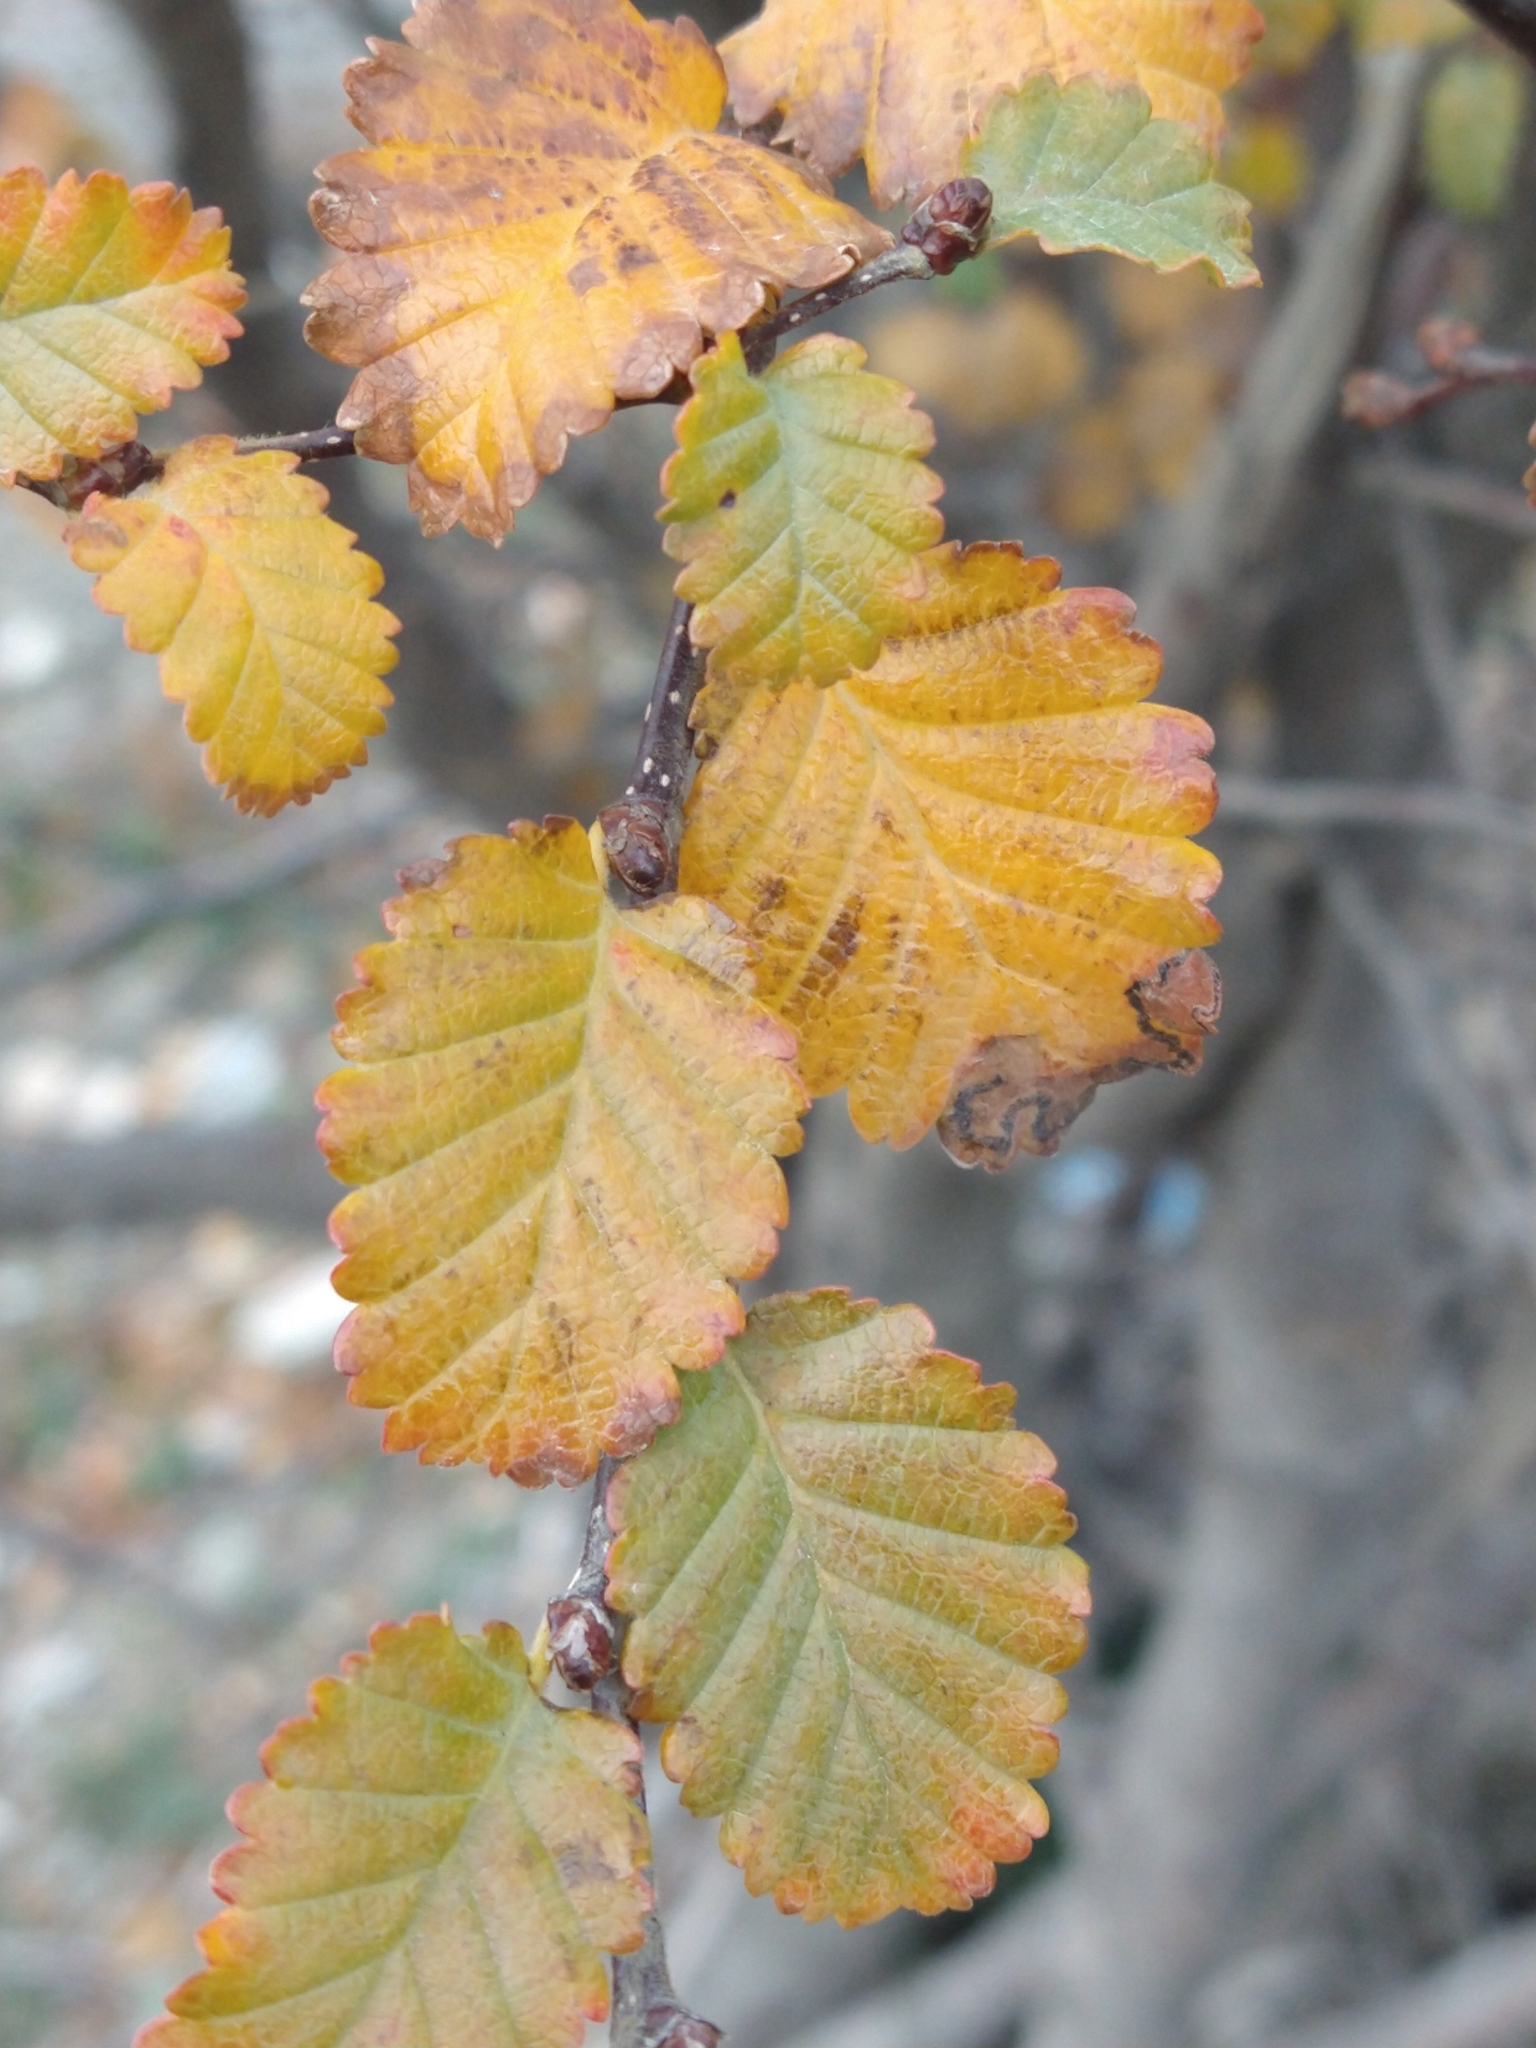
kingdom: Plantae
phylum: Tracheophyta
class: Magnoliopsida
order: Fagales
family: Nothofagaceae
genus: Nothofagus
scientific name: Nothofagus pumilio
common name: Lenga beech
